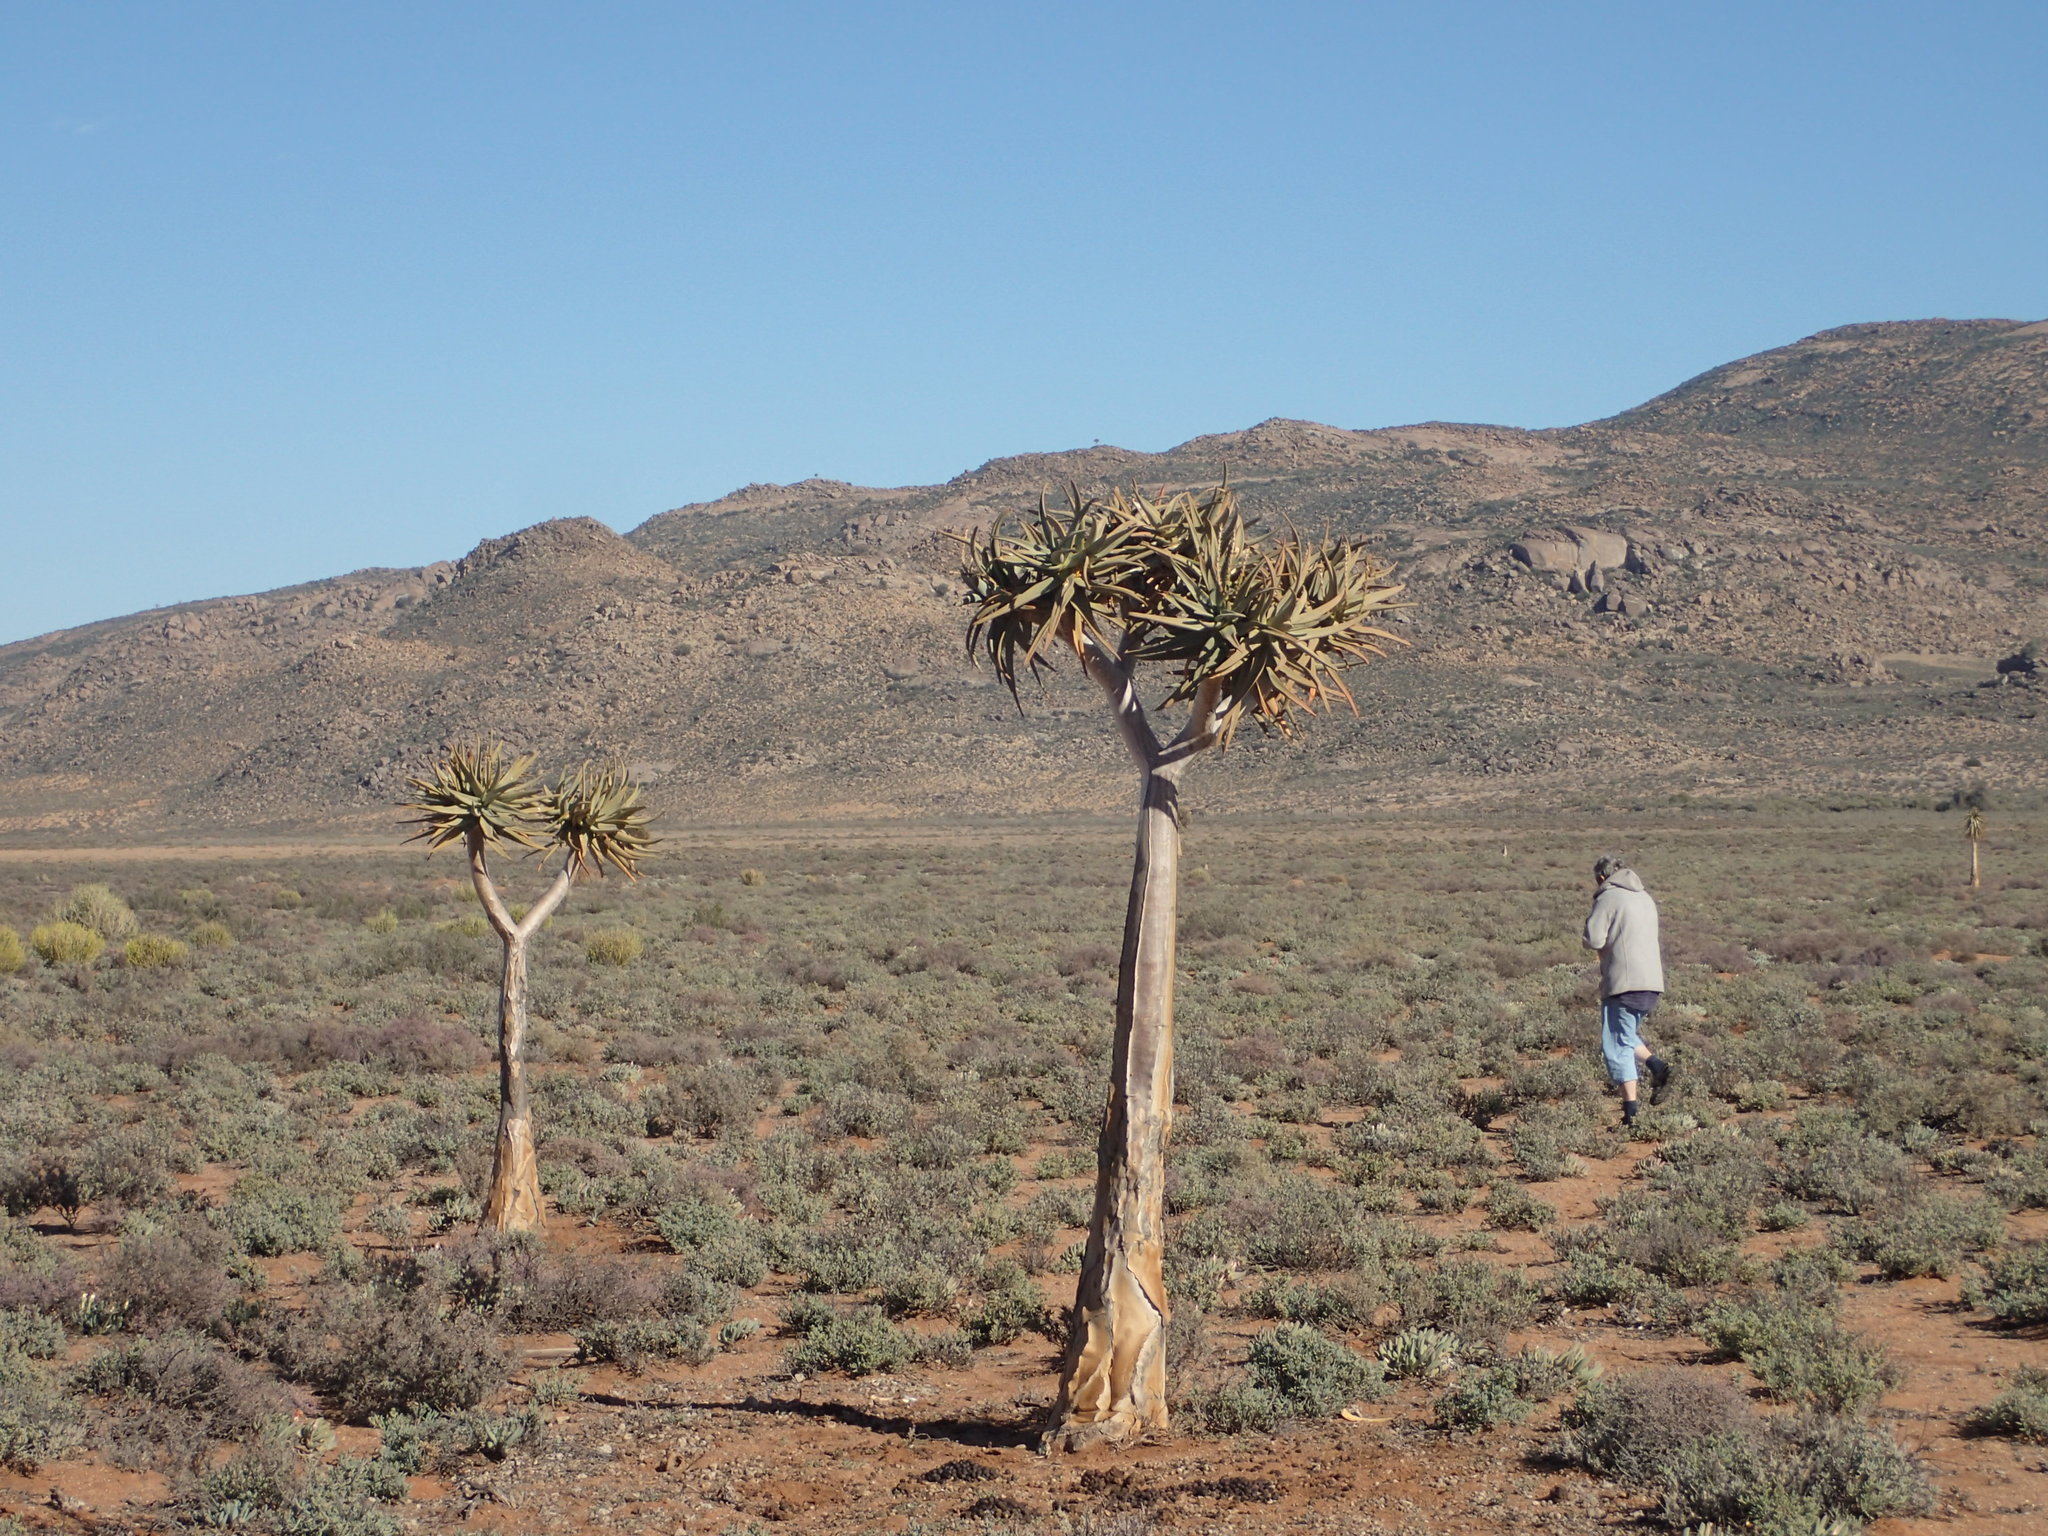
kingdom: Plantae
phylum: Tracheophyta
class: Liliopsida
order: Asparagales
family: Asphodelaceae
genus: Aloidendron
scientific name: Aloidendron dichotomum
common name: Quiver tree
